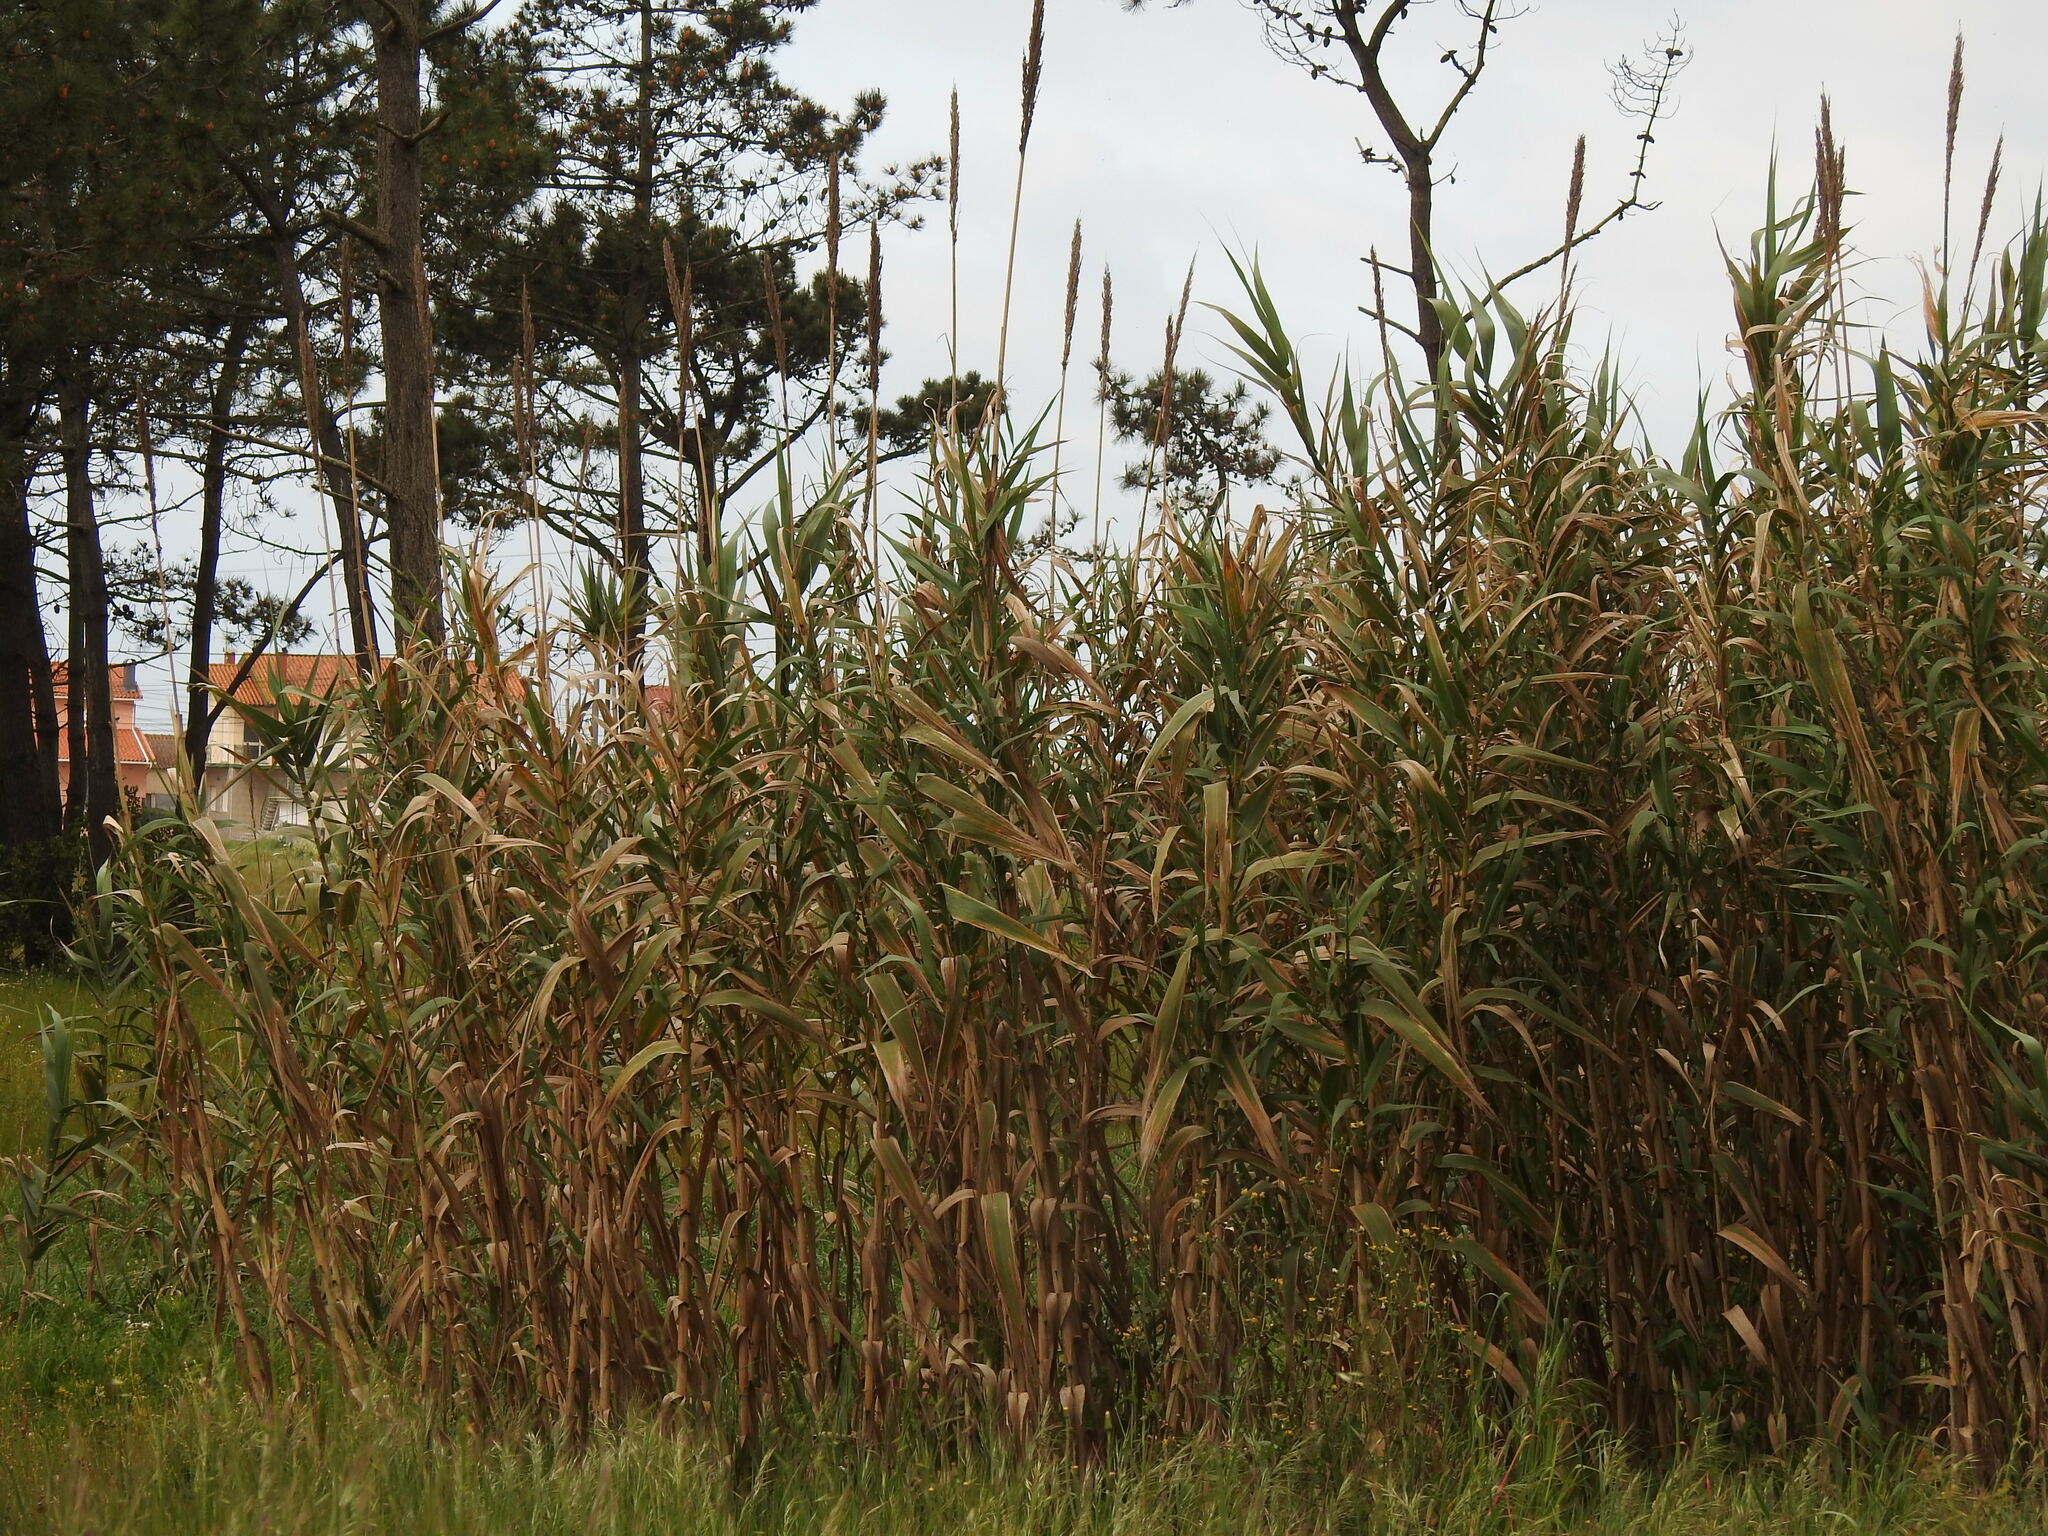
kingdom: Plantae
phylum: Tracheophyta
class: Liliopsida
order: Poales
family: Poaceae
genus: Arundo
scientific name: Arundo donax
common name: Giant reed
